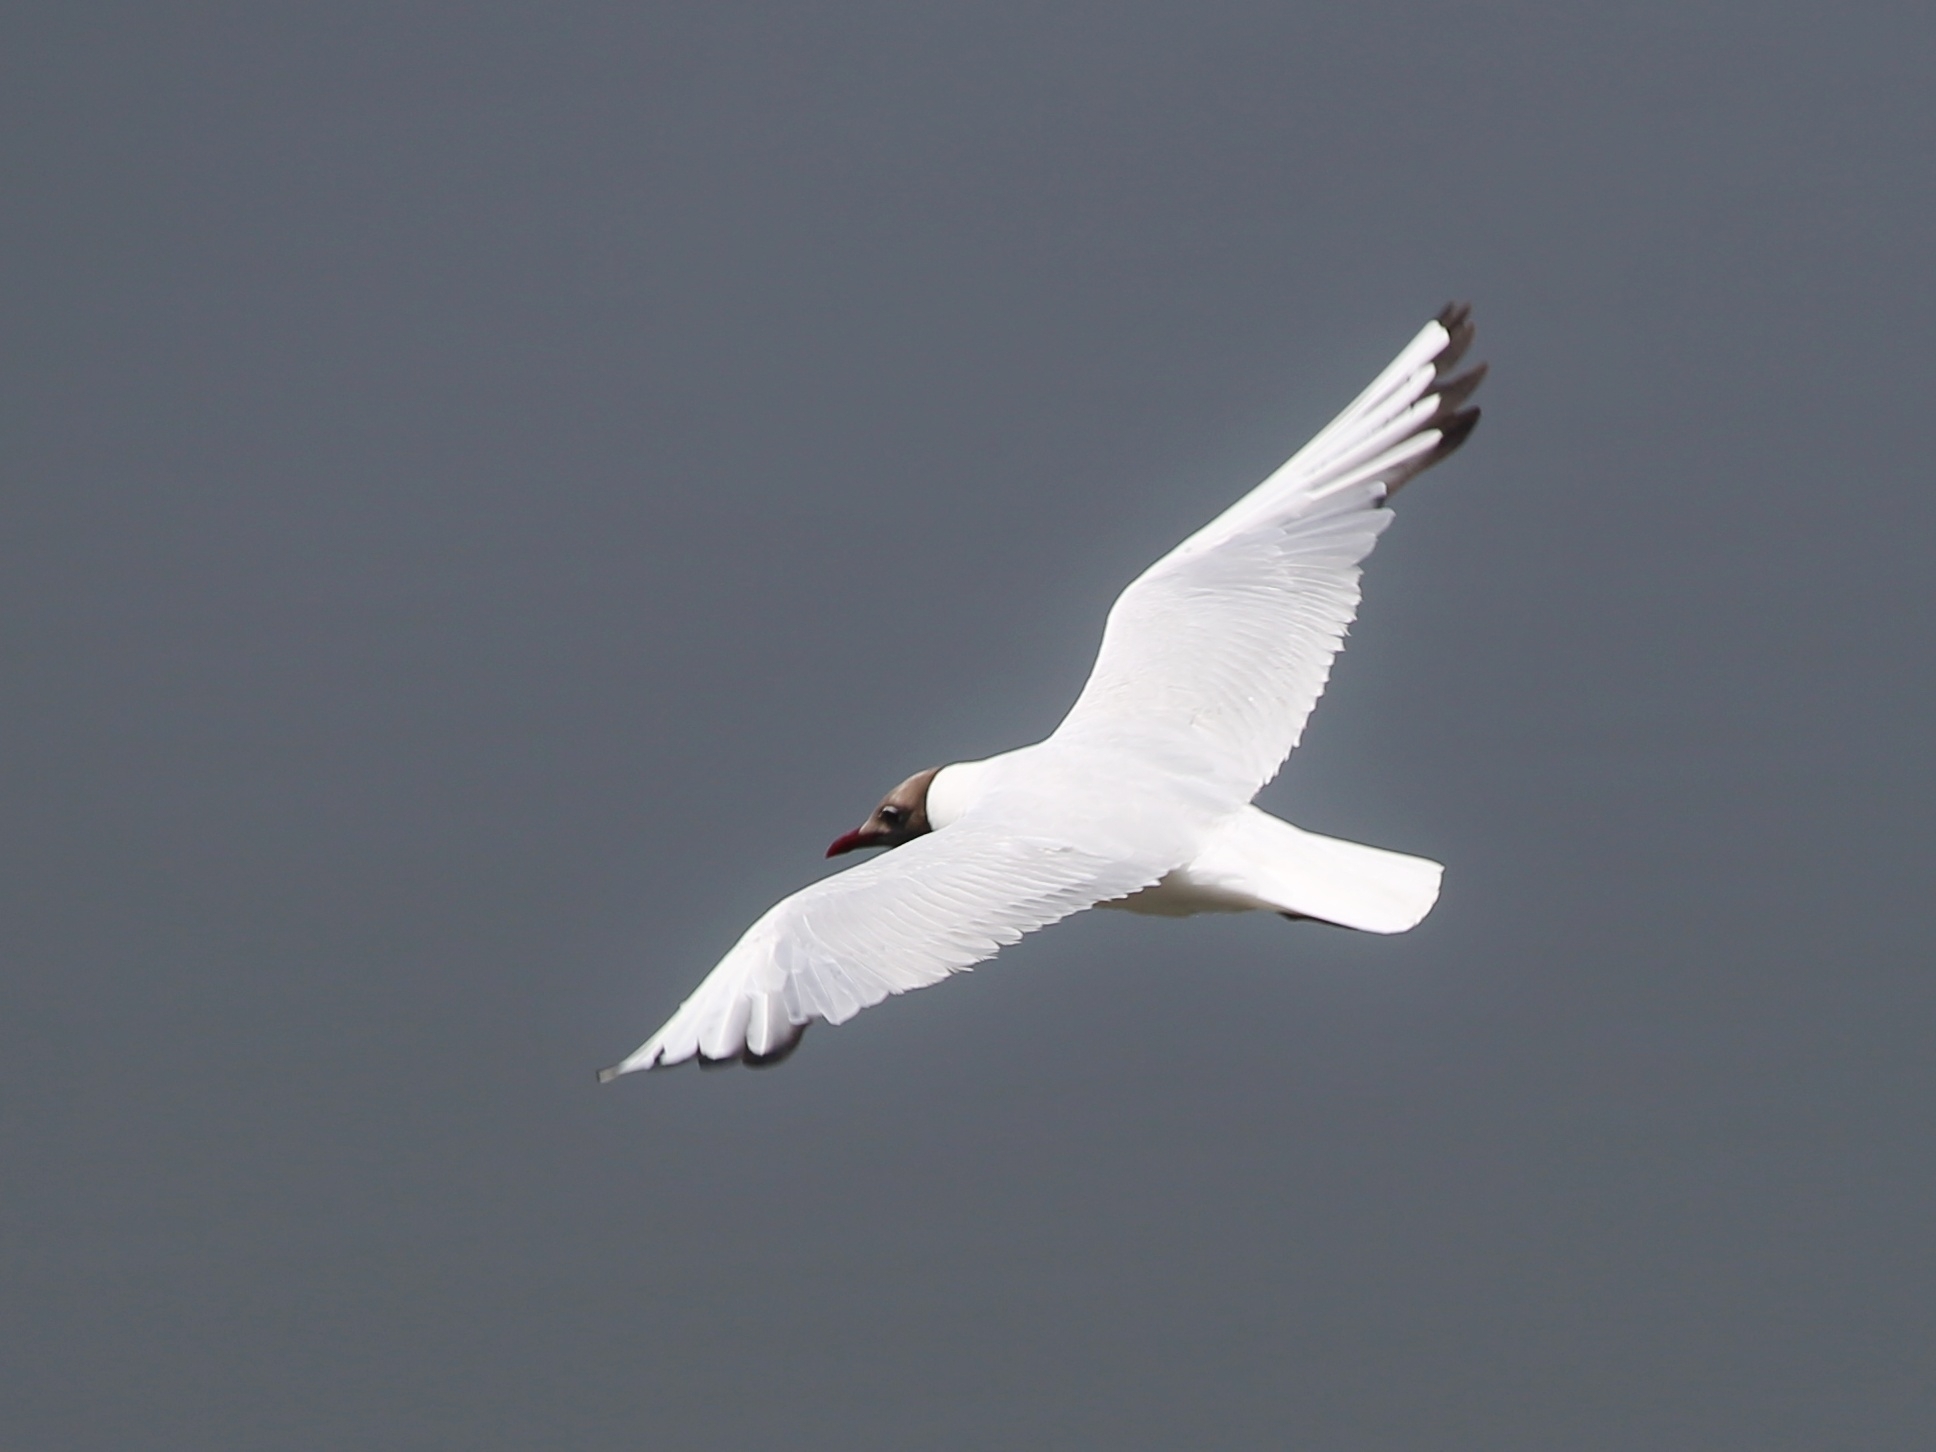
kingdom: Animalia
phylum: Chordata
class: Aves
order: Charadriiformes
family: Laridae
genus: Chroicocephalus
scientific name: Chroicocephalus ridibundus
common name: Black-headed gull
